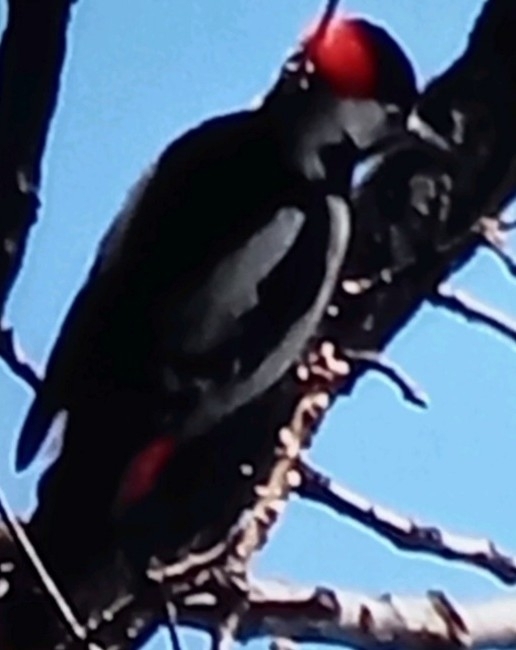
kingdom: Animalia
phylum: Chordata
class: Aves
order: Piciformes
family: Picidae
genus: Dendrocopos
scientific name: Dendrocopos
